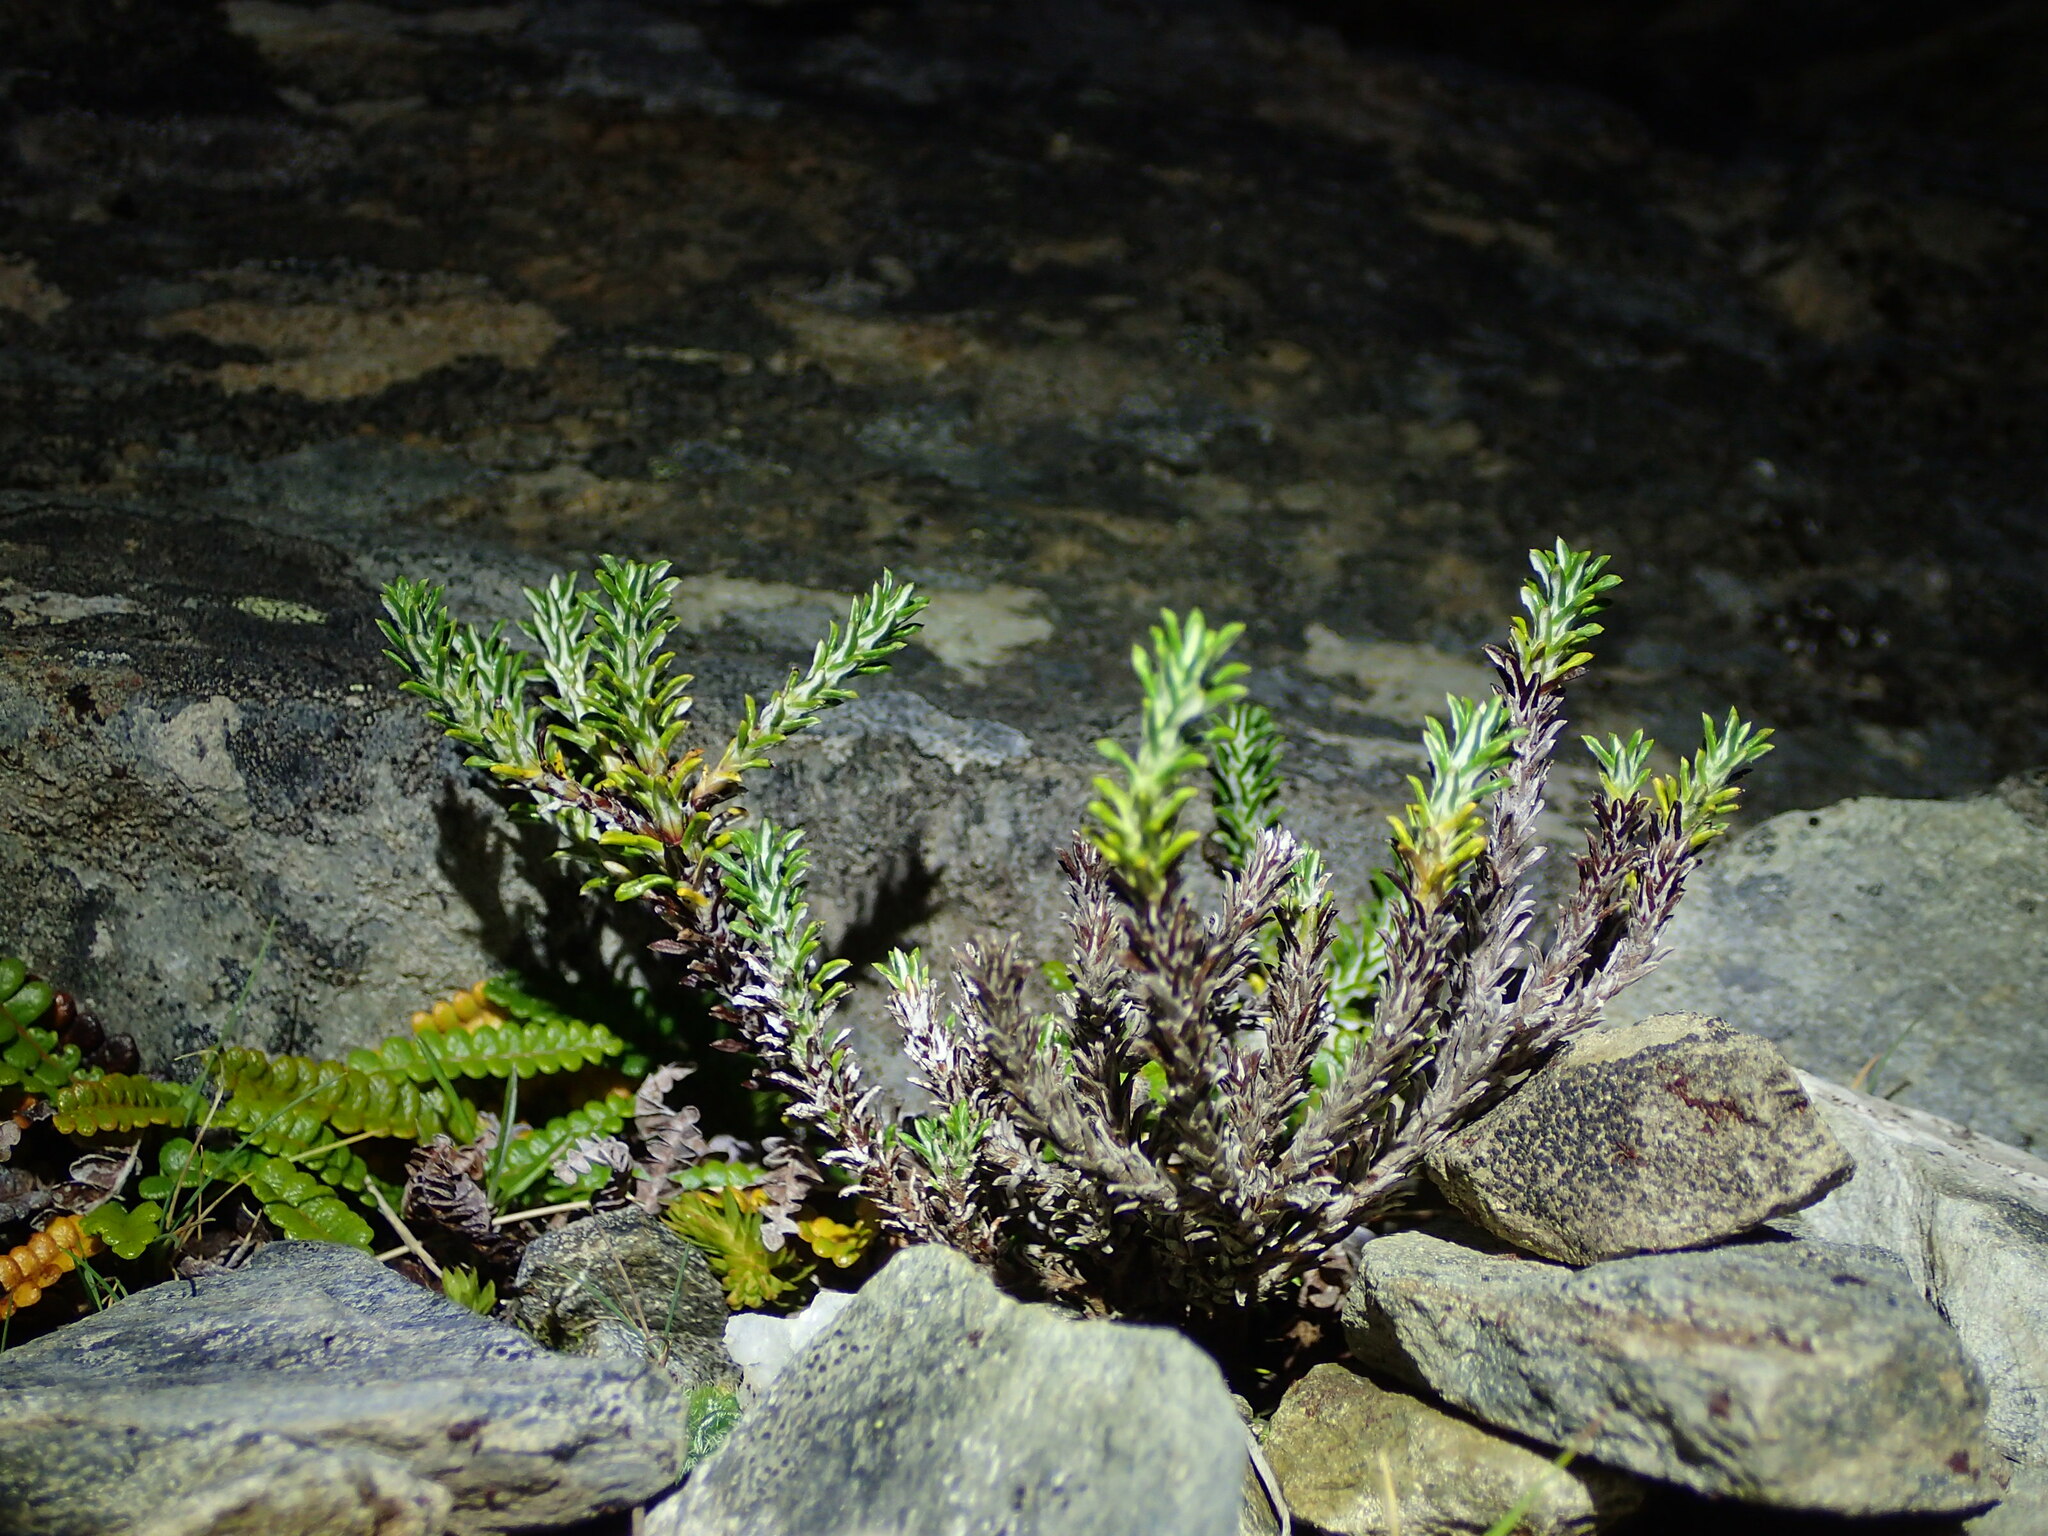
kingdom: Plantae
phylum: Tracheophyta
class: Magnoliopsida
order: Asterales
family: Asteraceae
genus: Celmisia
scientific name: Celmisia ramulosa
